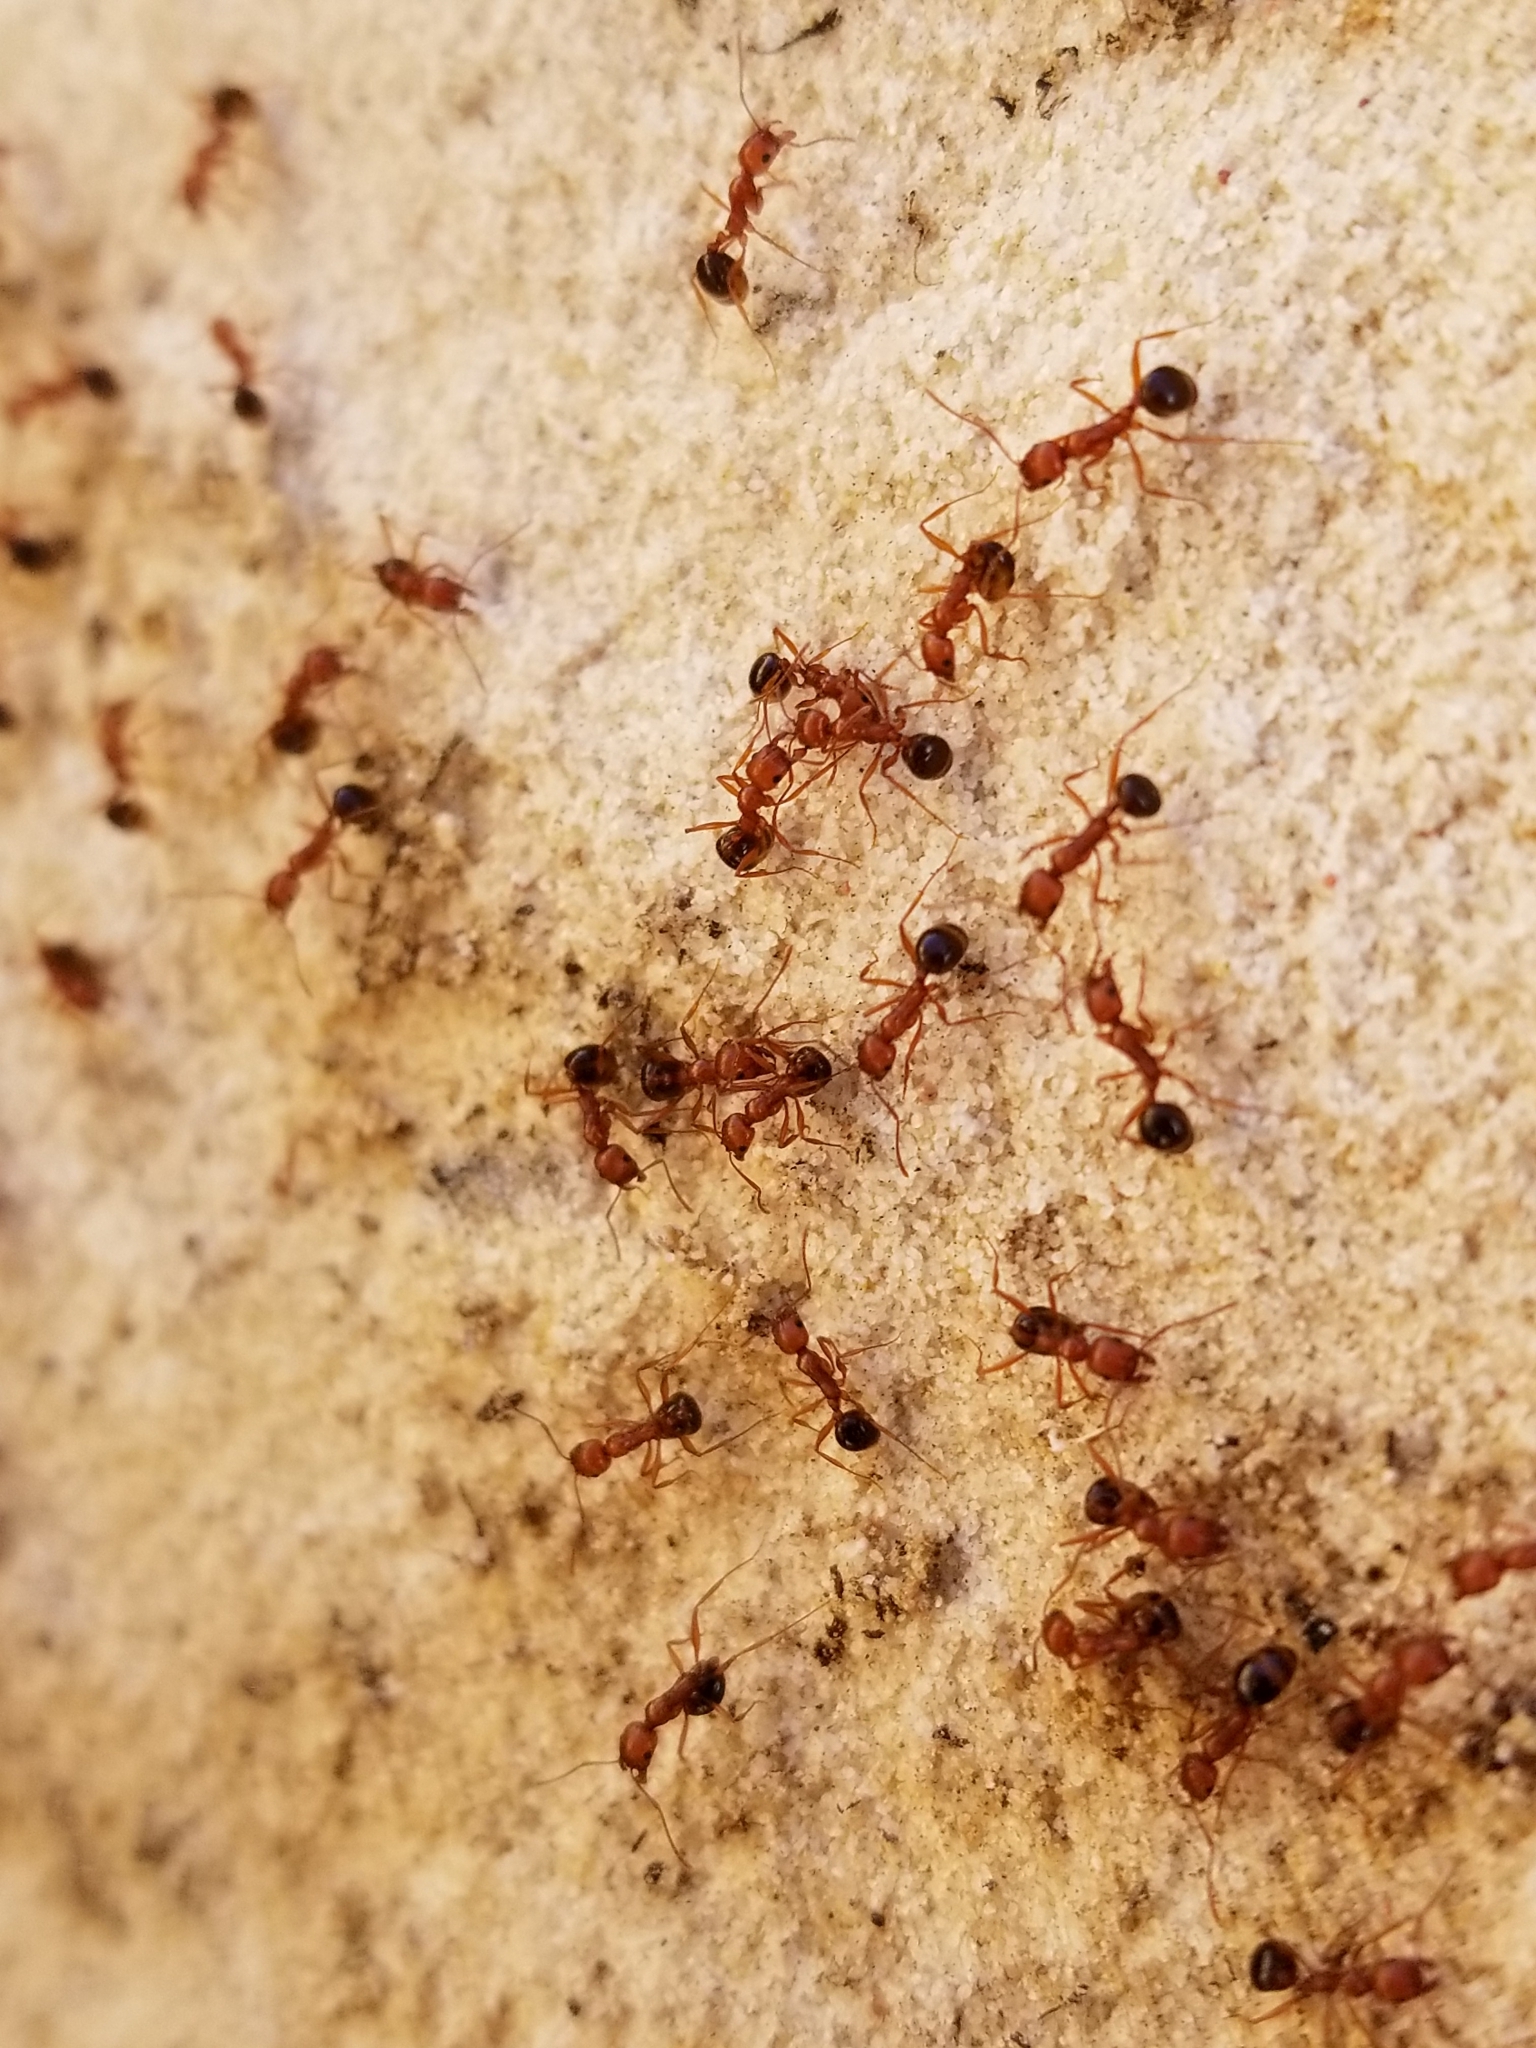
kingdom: Animalia
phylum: Arthropoda
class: Insecta
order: Hymenoptera
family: Formicidae
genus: Aphaenogaster
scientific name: Aphaenogaster uinta
